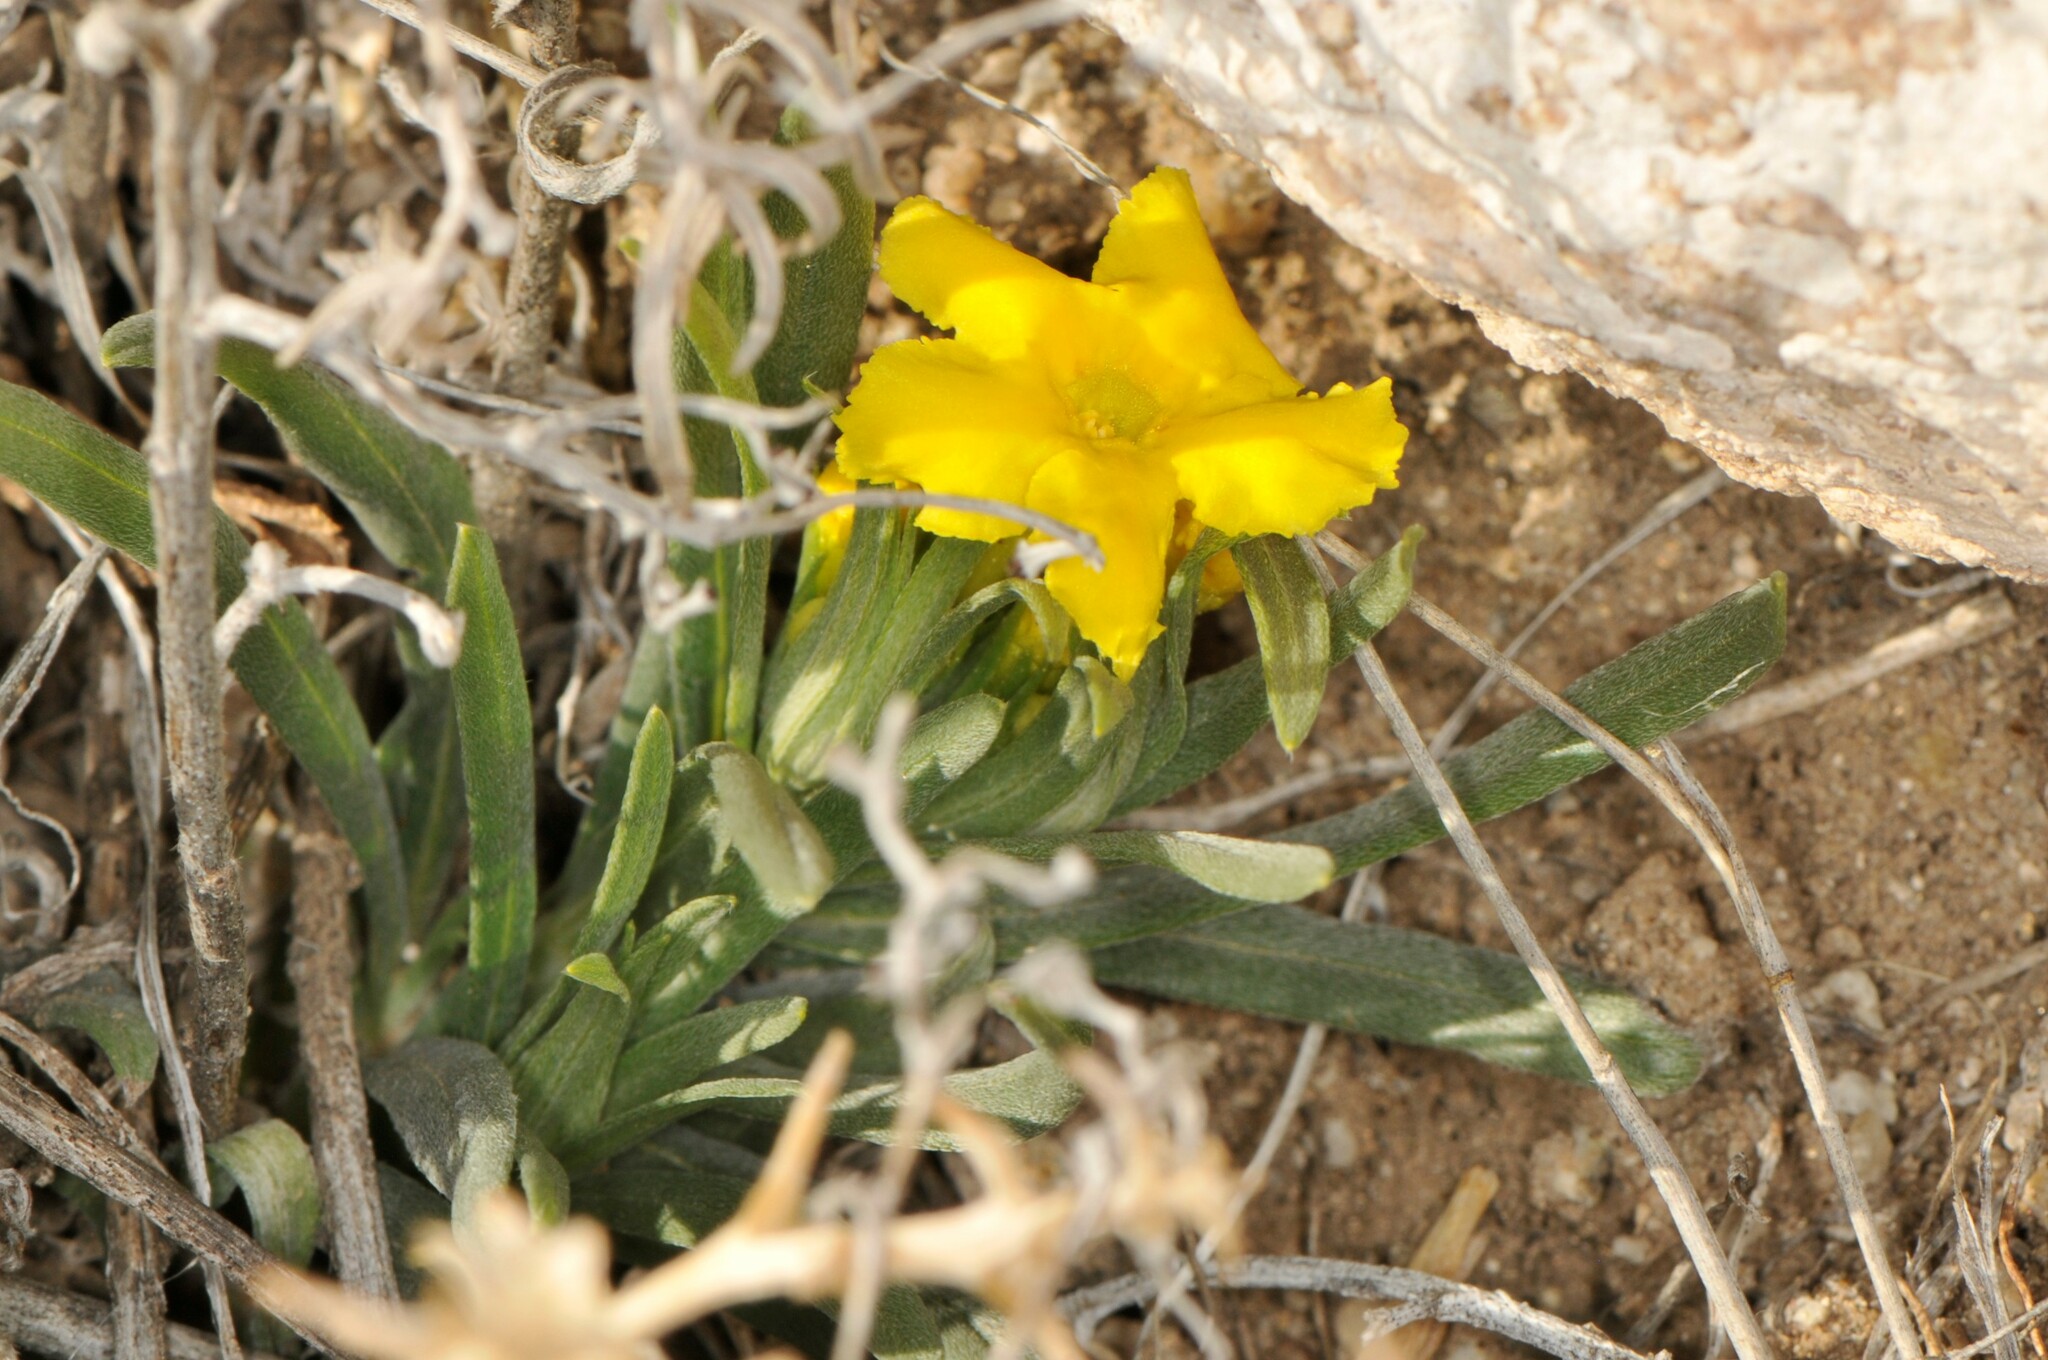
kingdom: Plantae
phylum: Tracheophyta
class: Magnoliopsida
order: Boraginales
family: Boraginaceae
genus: Lithospermum
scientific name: Lithospermum incisum
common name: Fringed gromwell
